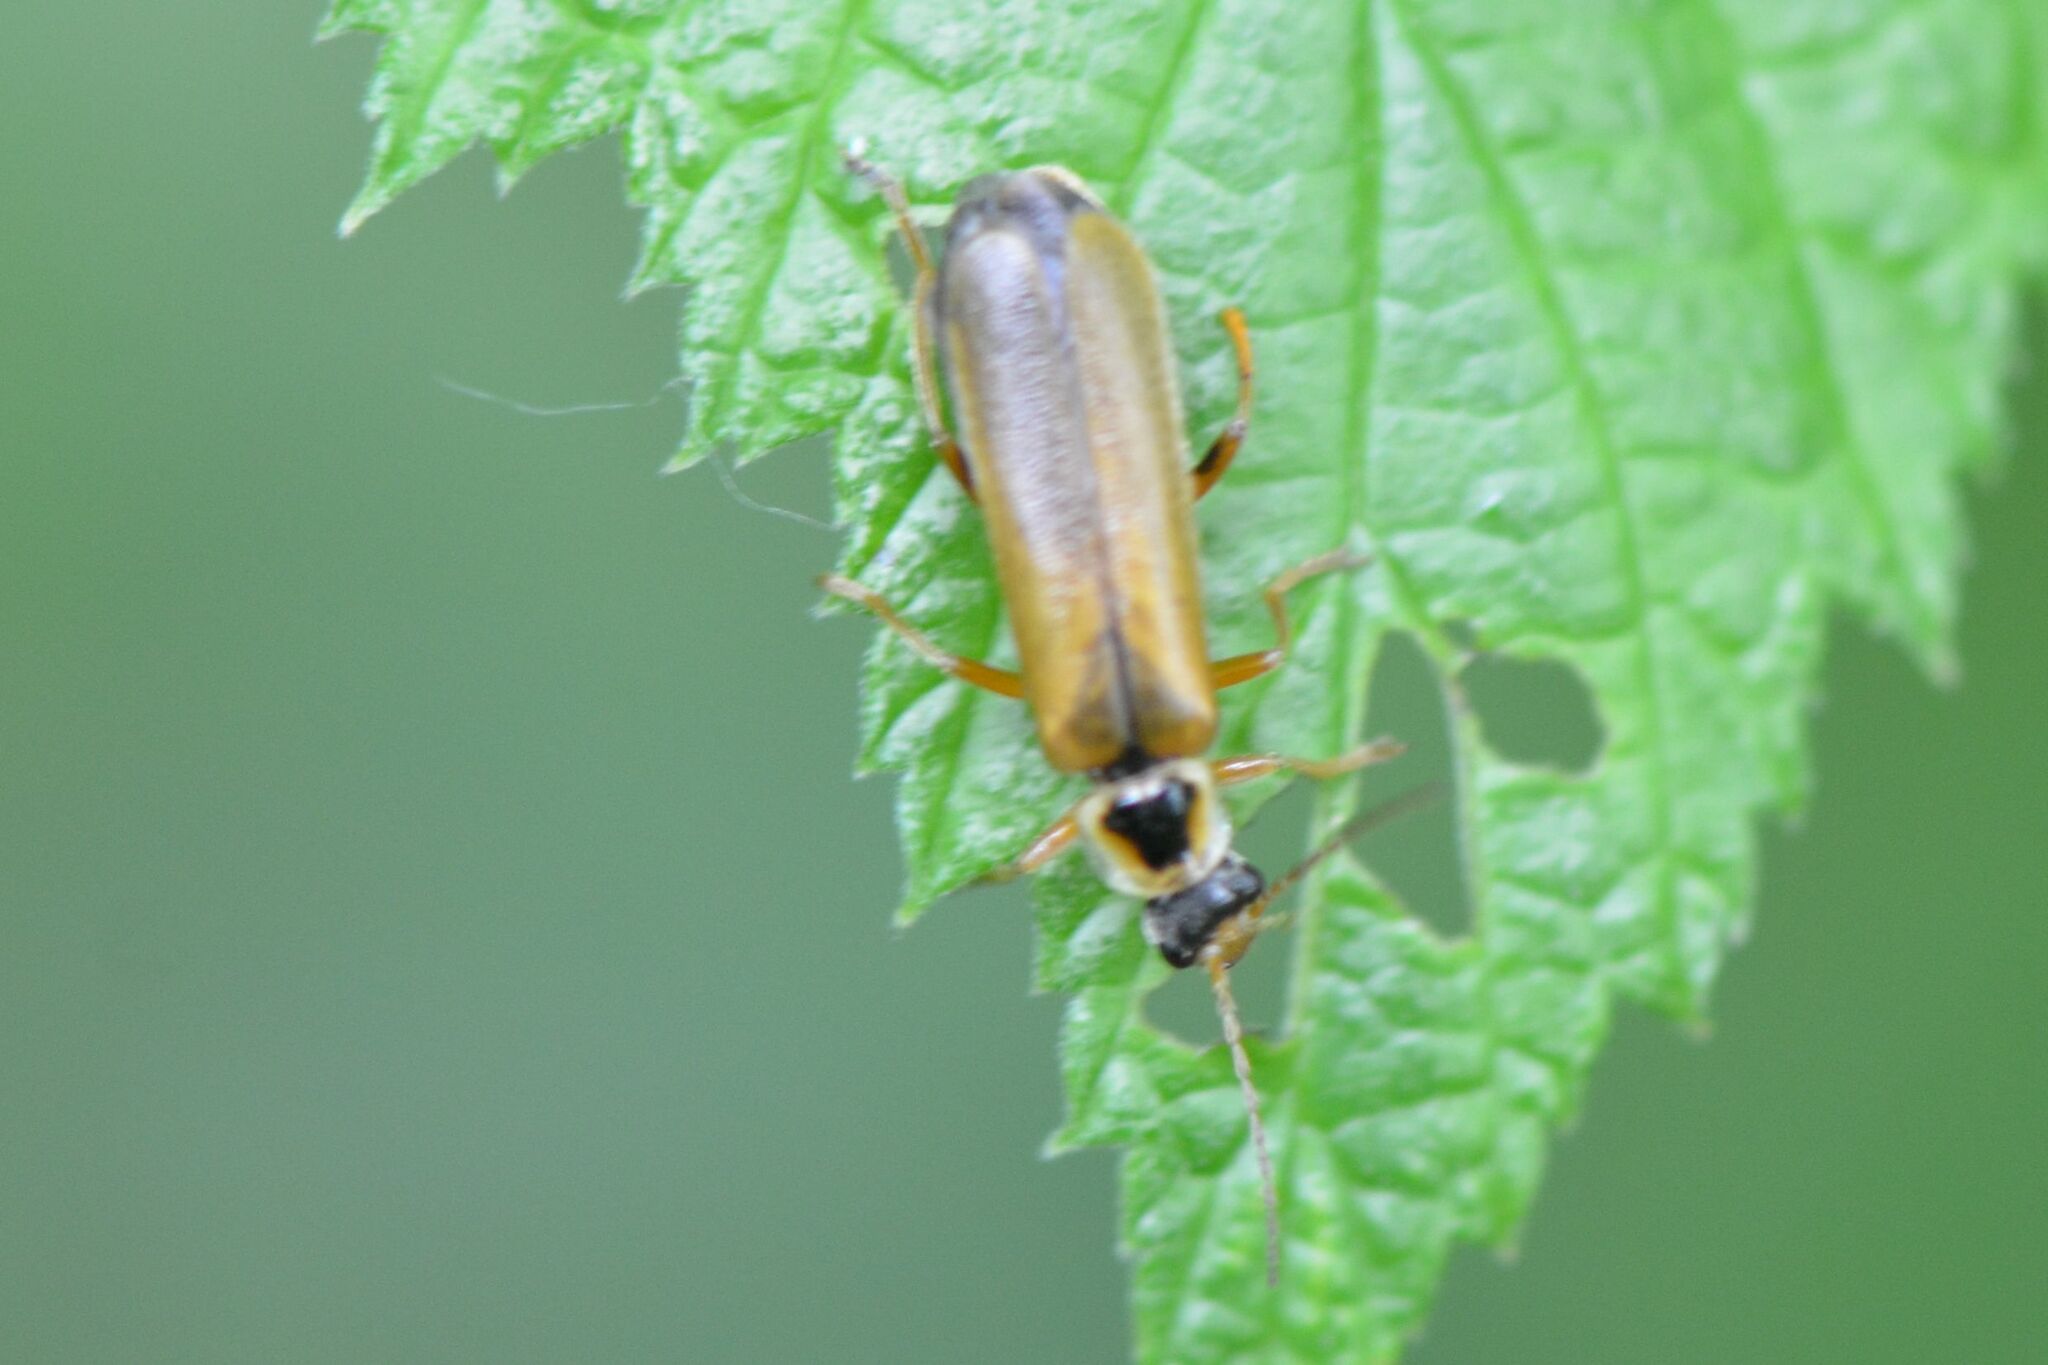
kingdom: Animalia
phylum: Arthropoda
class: Insecta
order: Coleoptera
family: Cantharidae
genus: Cantharis
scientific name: Cantharis decipiens
